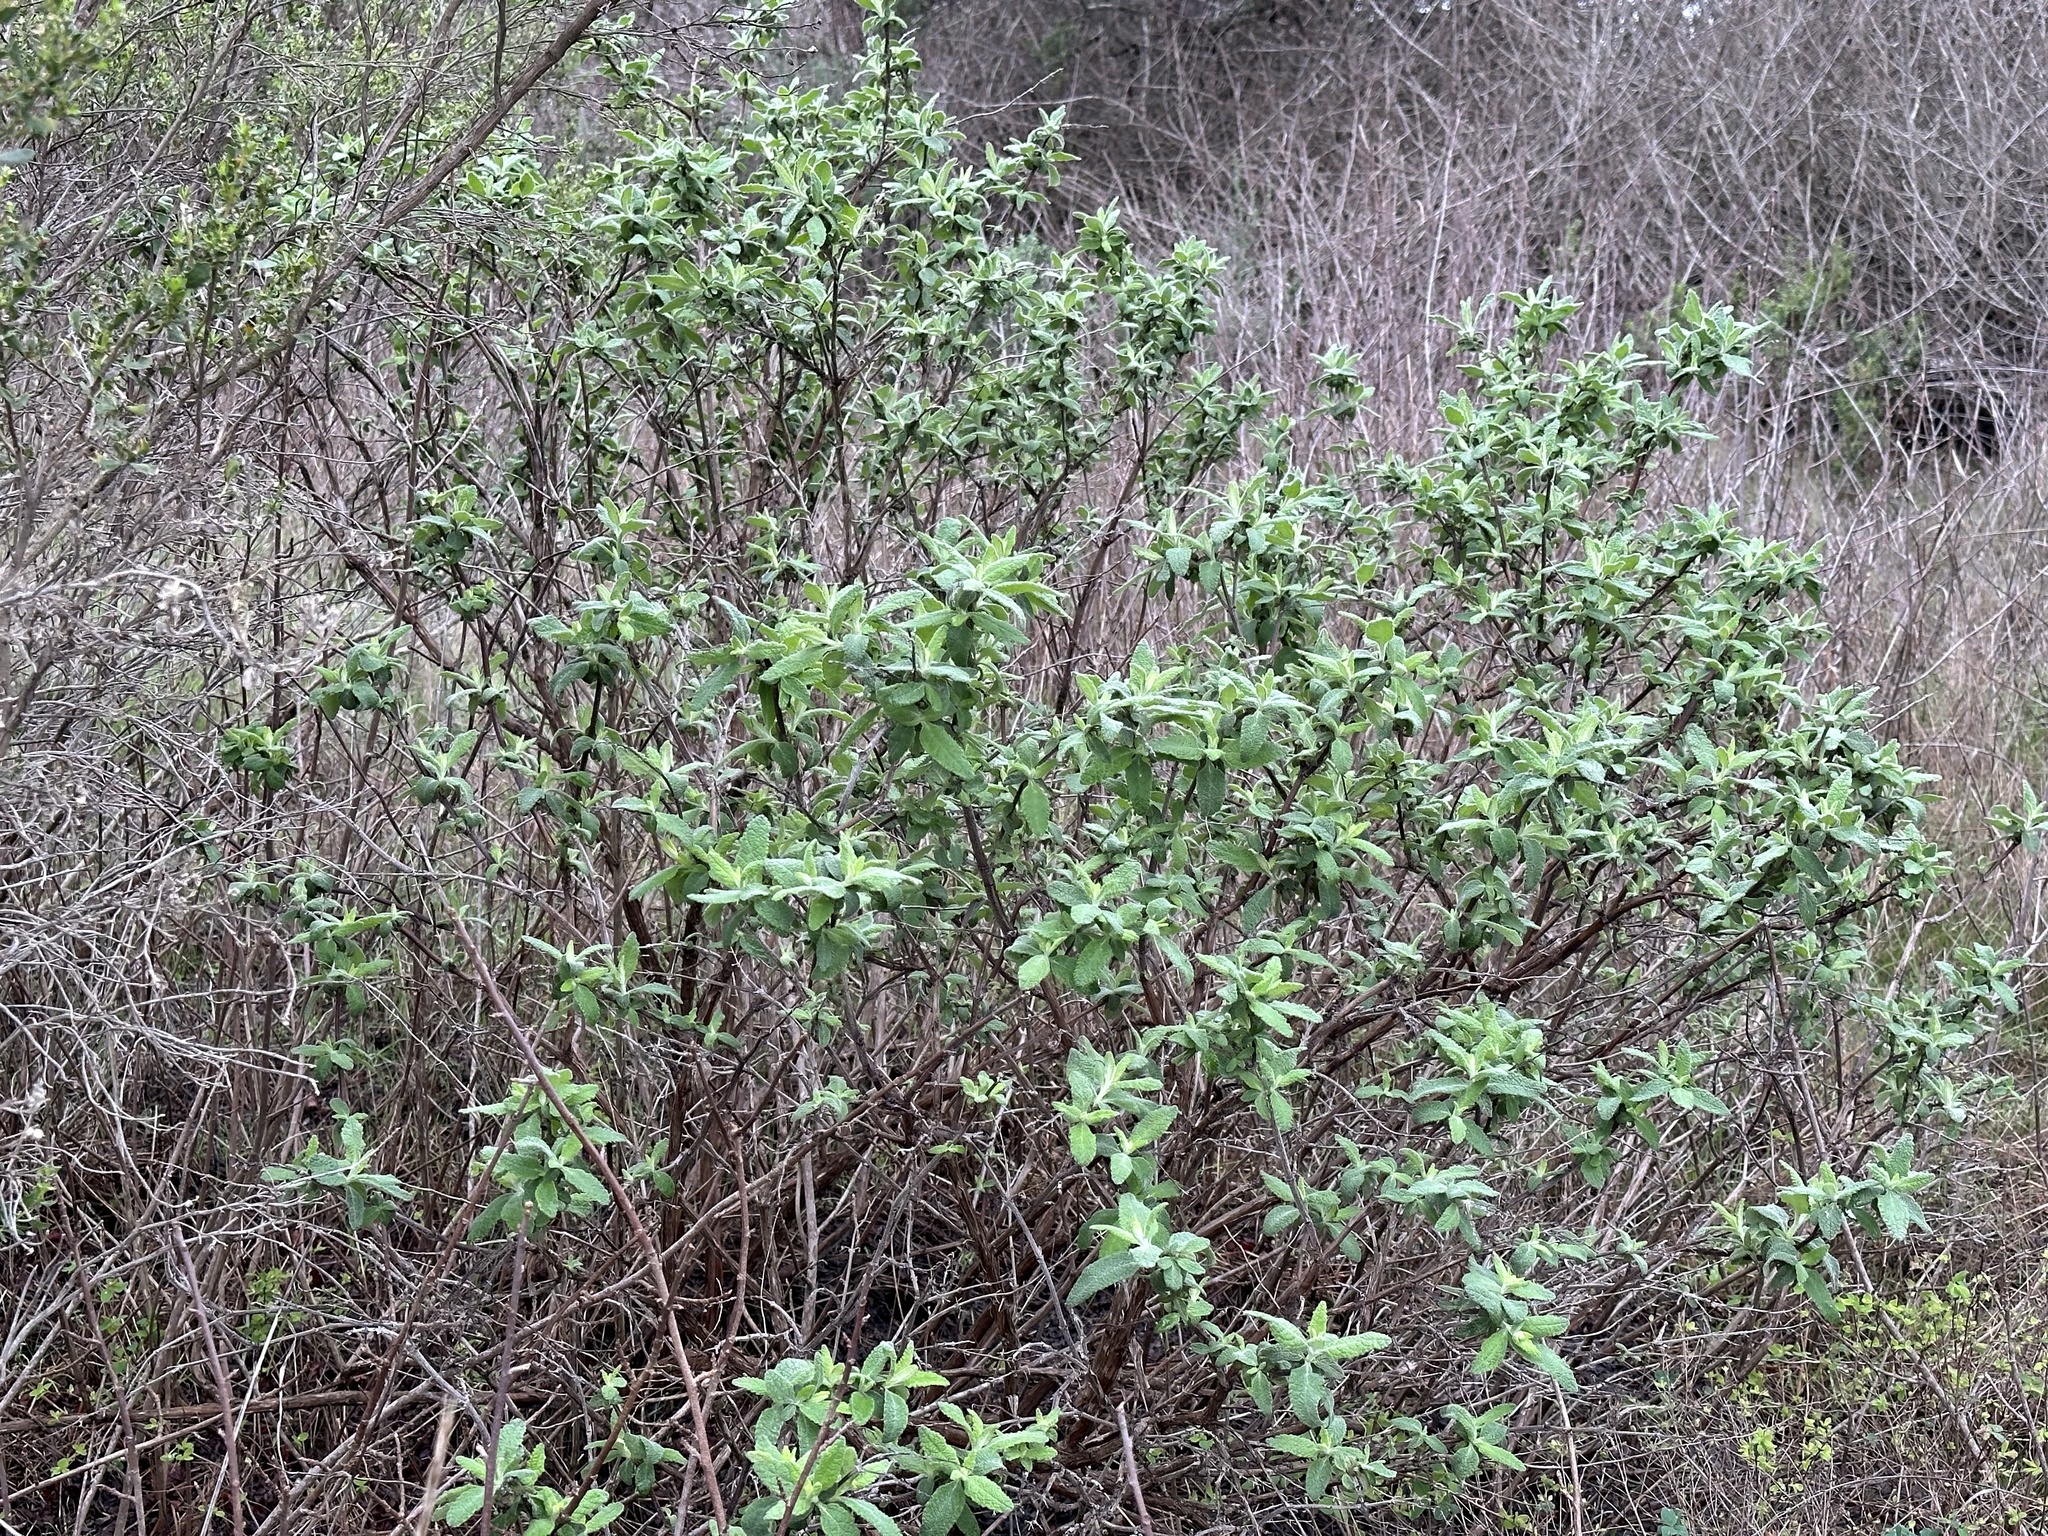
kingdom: Plantae
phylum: Tracheophyta
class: Magnoliopsida
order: Lamiales
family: Lamiaceae
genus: Lepechinia
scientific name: Lepechinia calycina
